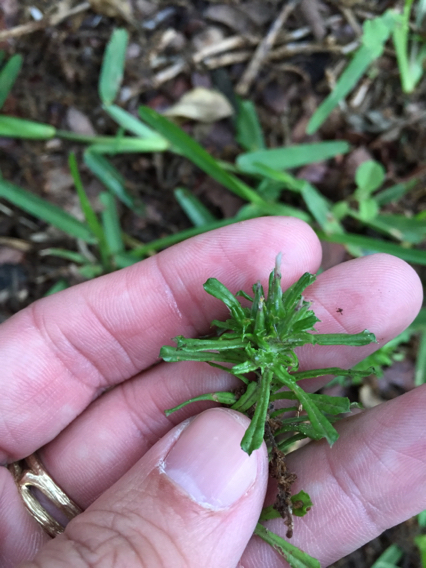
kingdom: Plantae
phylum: Tracheophyta
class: Magnoliopsida
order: Asterales
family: Asteraceae
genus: Facelis
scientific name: Facelis retusa
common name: Annual trampweed
